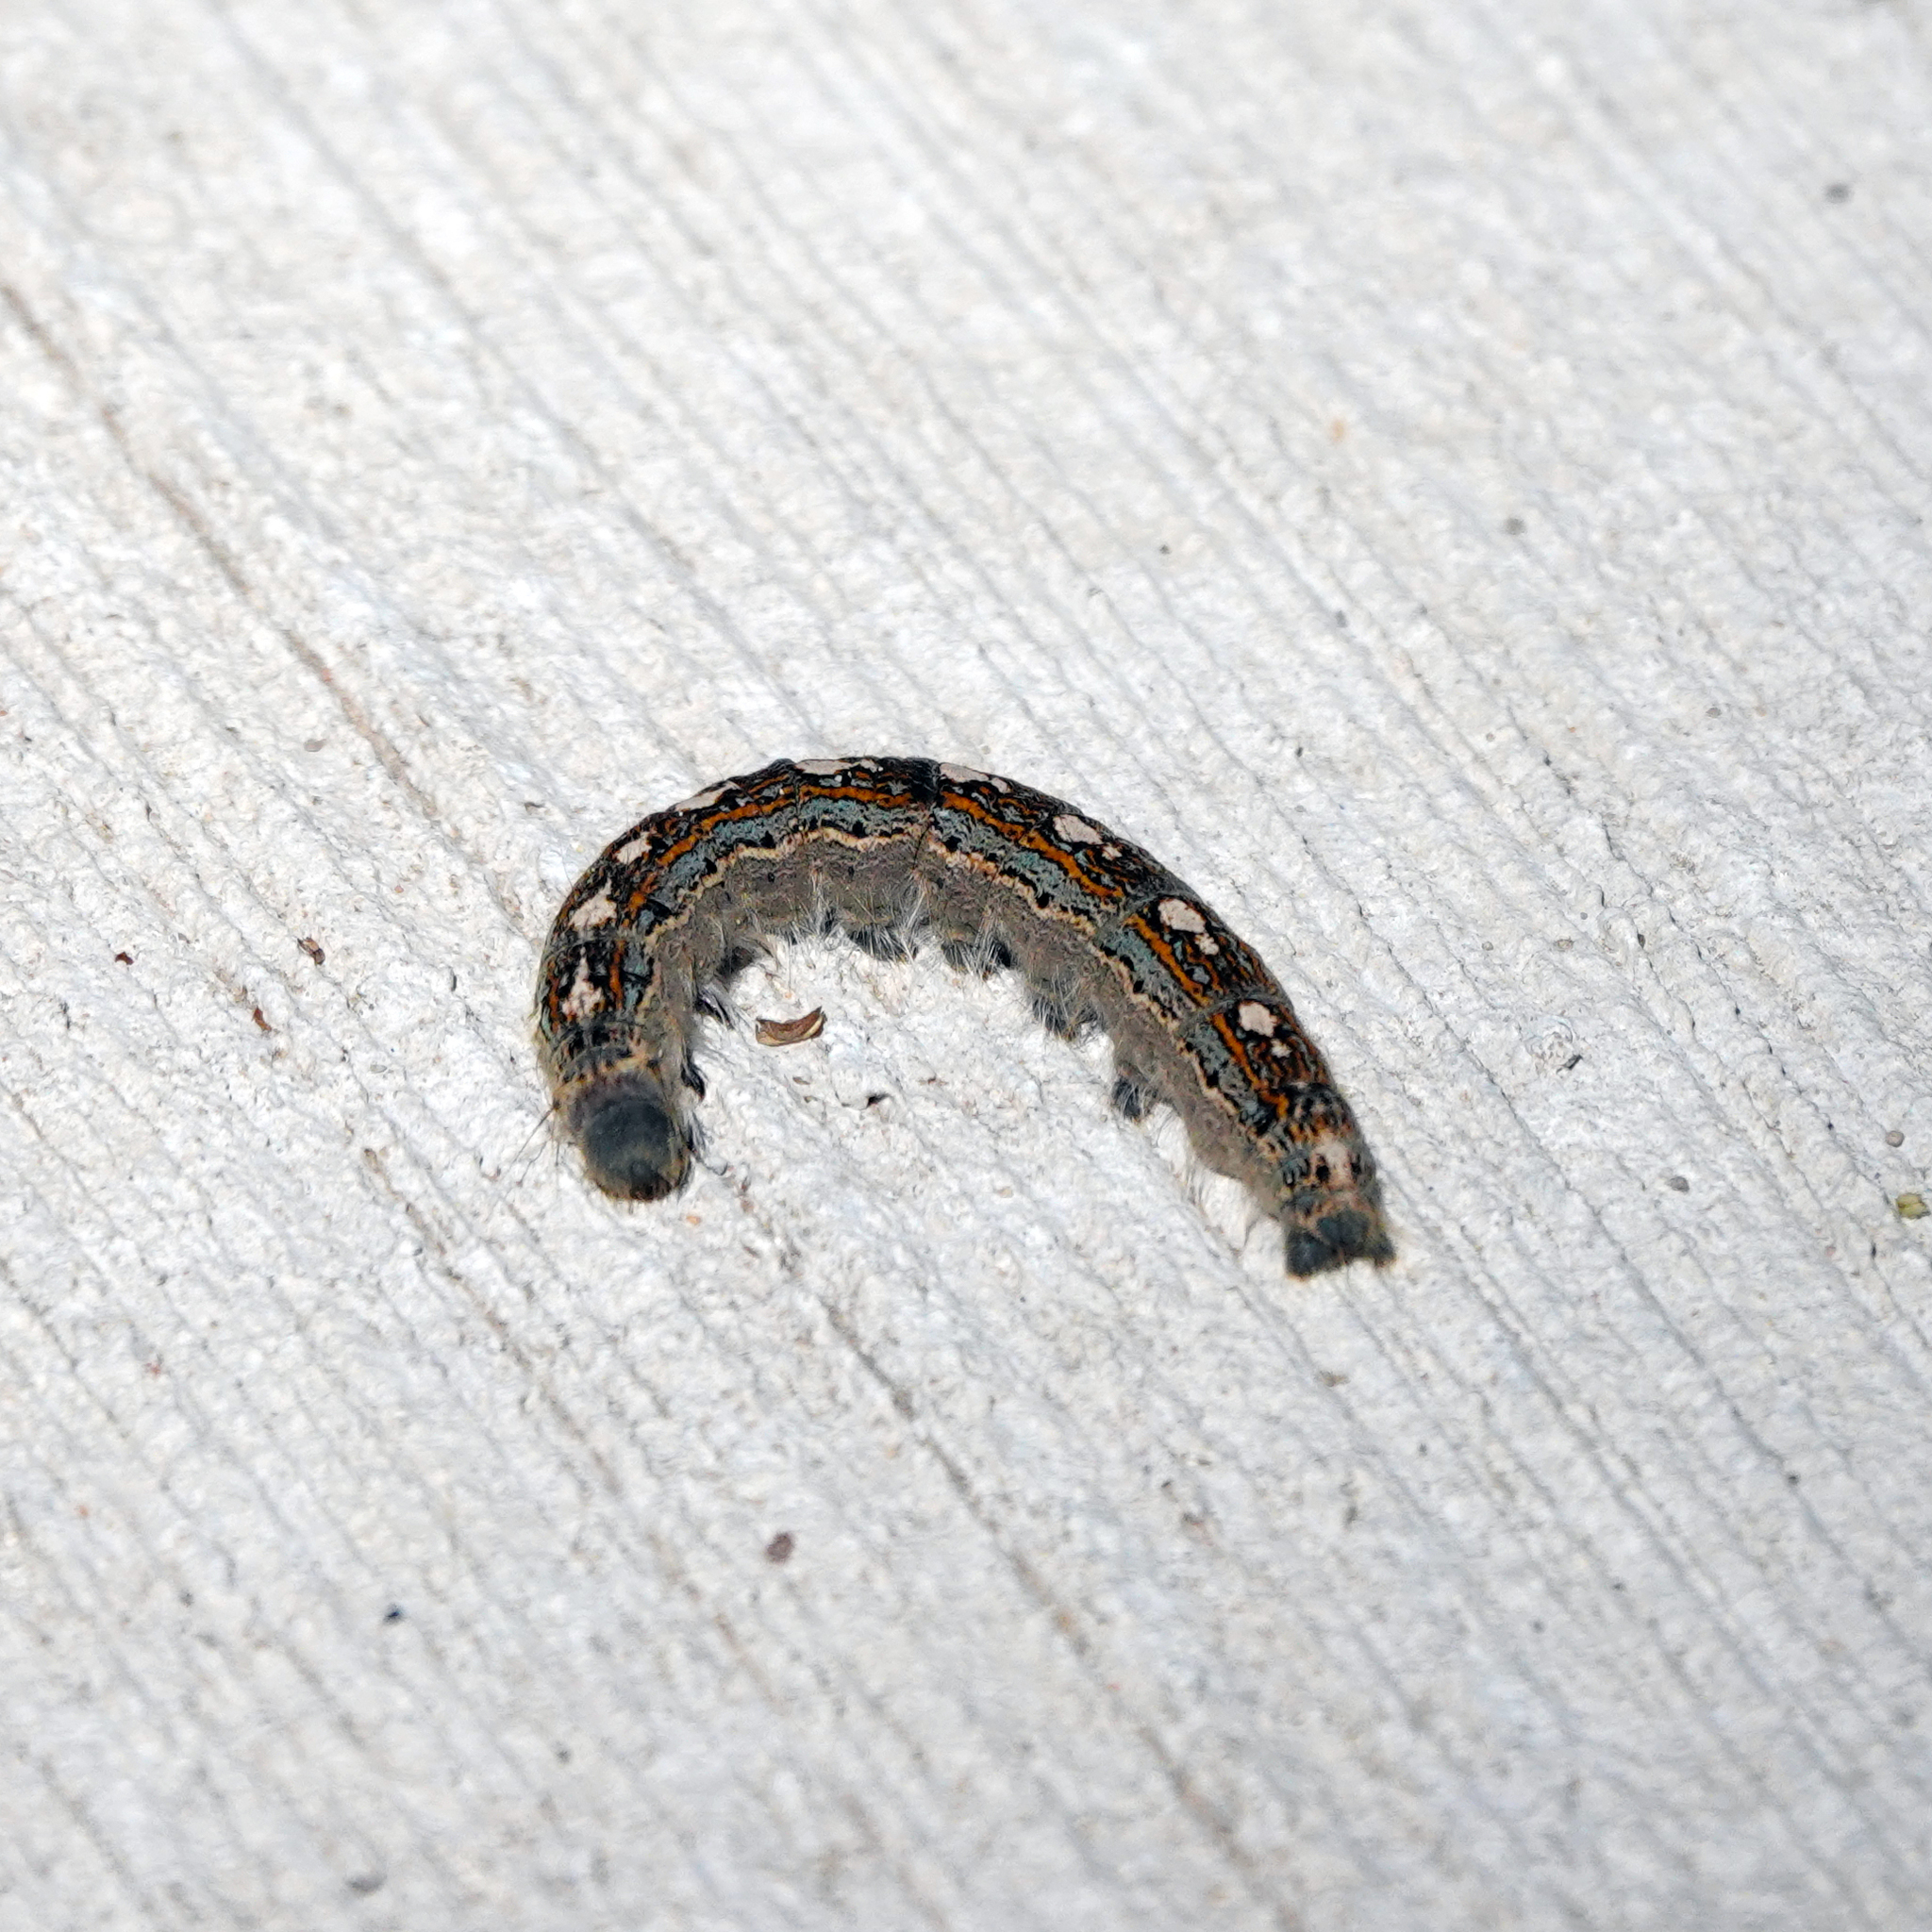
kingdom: Animalia
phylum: Arthropoda
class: Insecta
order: Lepidoptera
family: Lasiocampidae
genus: Malacosoma
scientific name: Malacosoma disstria
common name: Forest tent caterpillar
